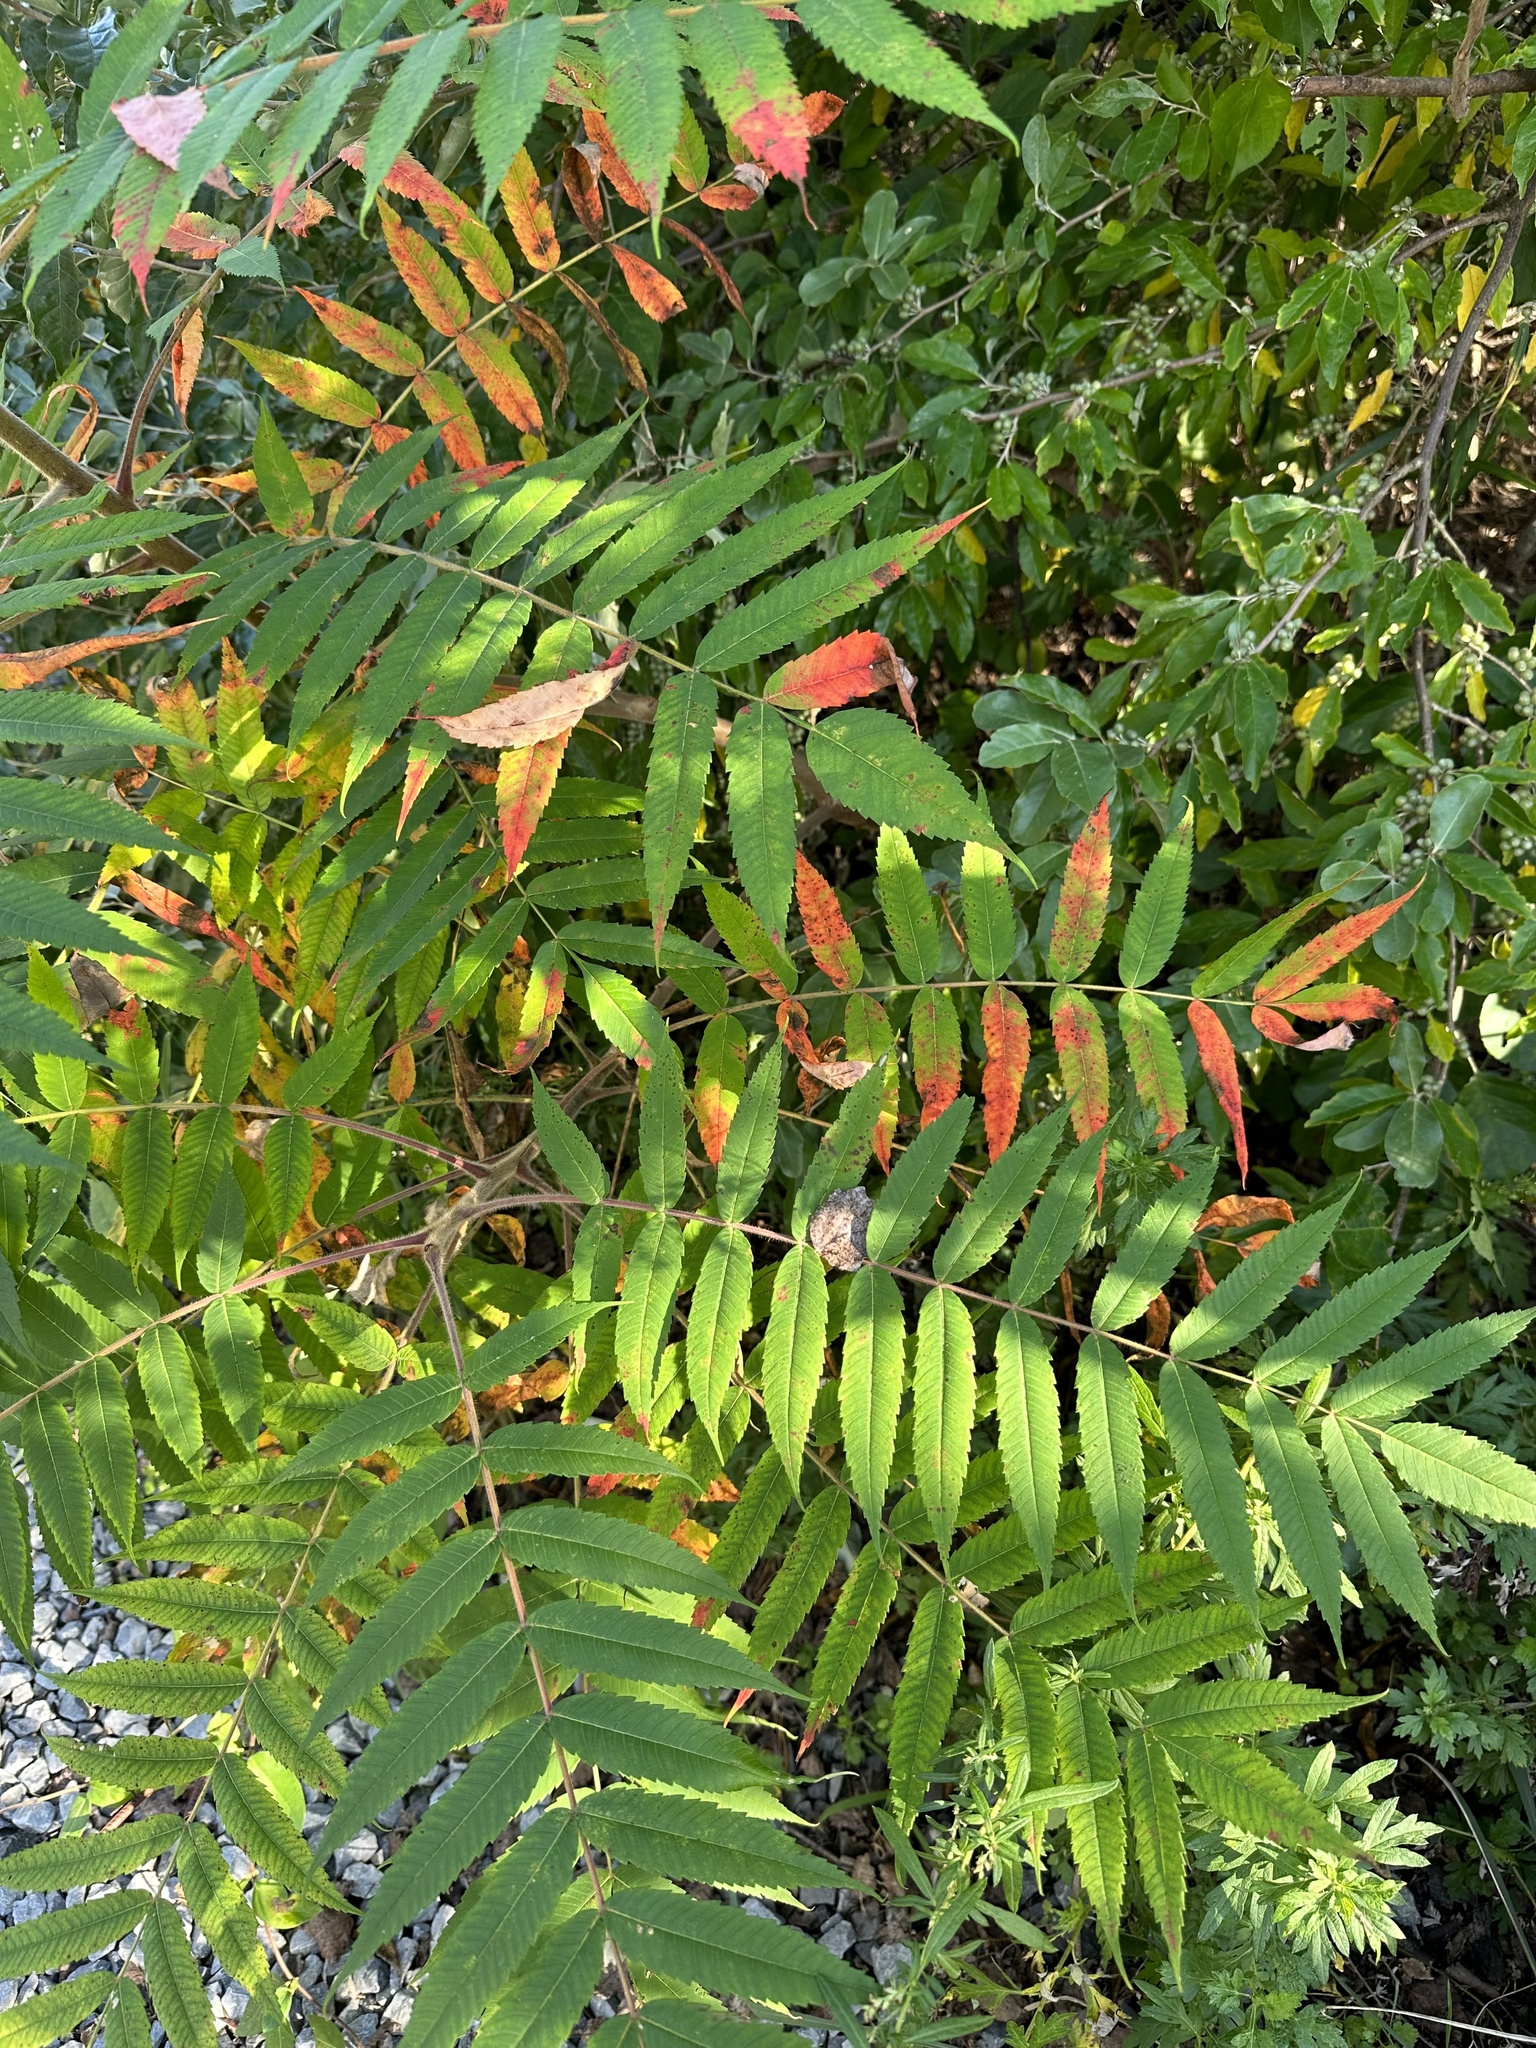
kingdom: Plantae
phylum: Tracheophyta
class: Magnoliopsida
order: Sapindales
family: Anacardiaceae
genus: Rhus
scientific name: Rhus typhina
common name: Staghorn sumac
